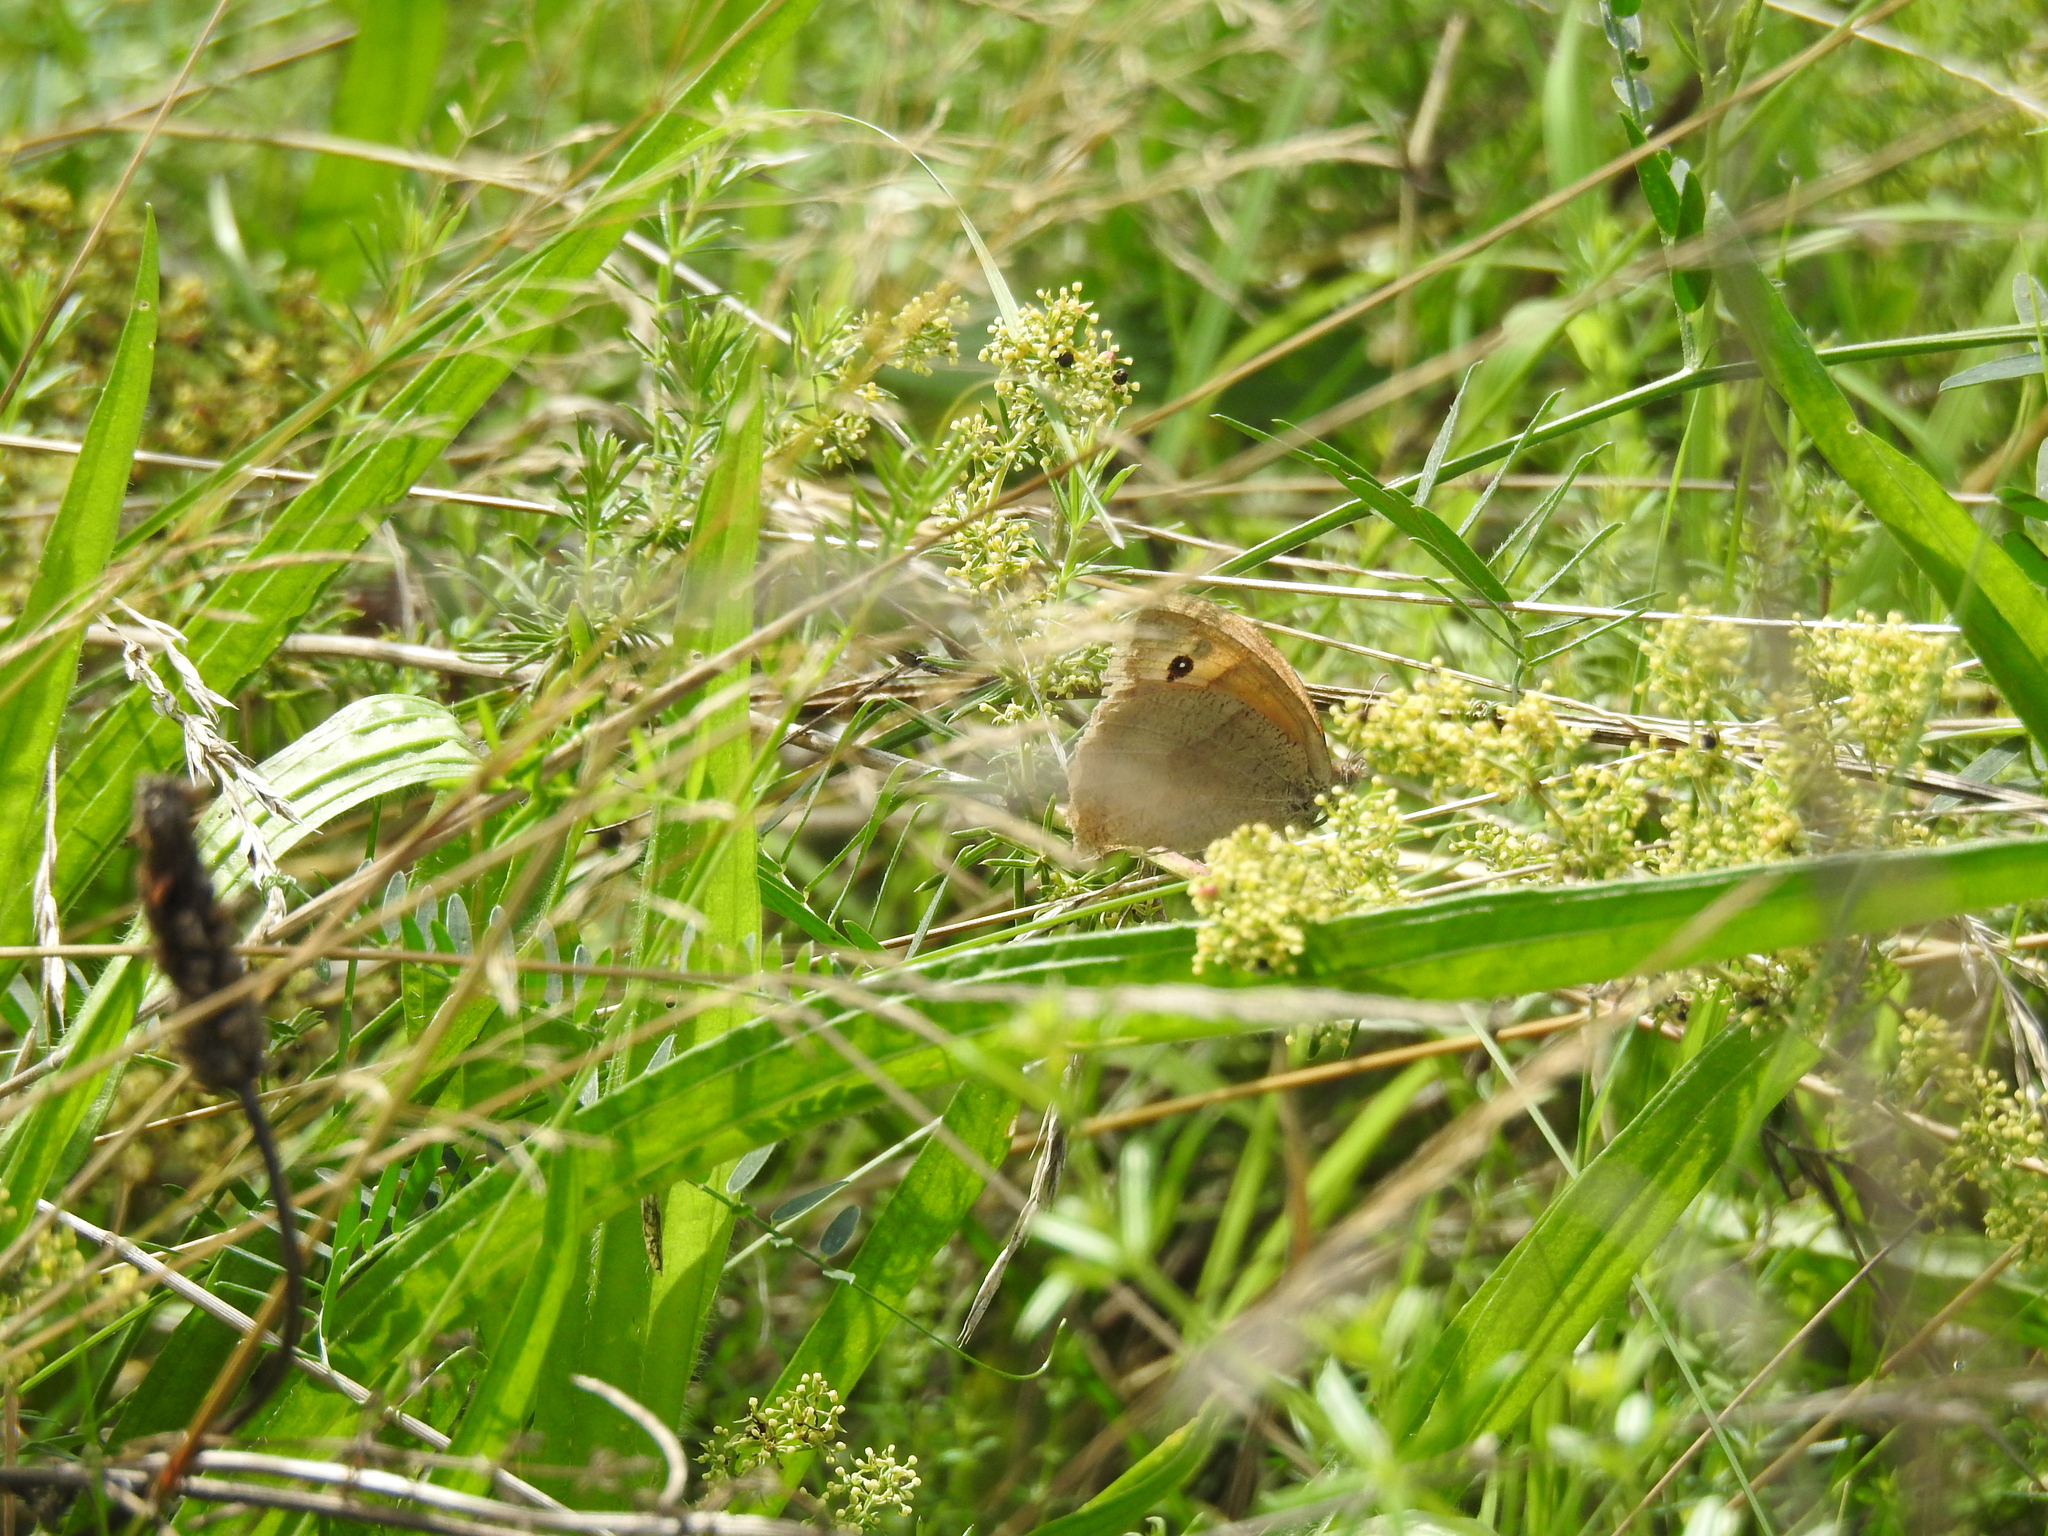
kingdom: Animalia
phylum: Arthropoda
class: Insecta
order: Lepidoptera
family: Nymphalidae
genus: Maniola
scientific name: Maniola jurtina
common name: Meadow brown
